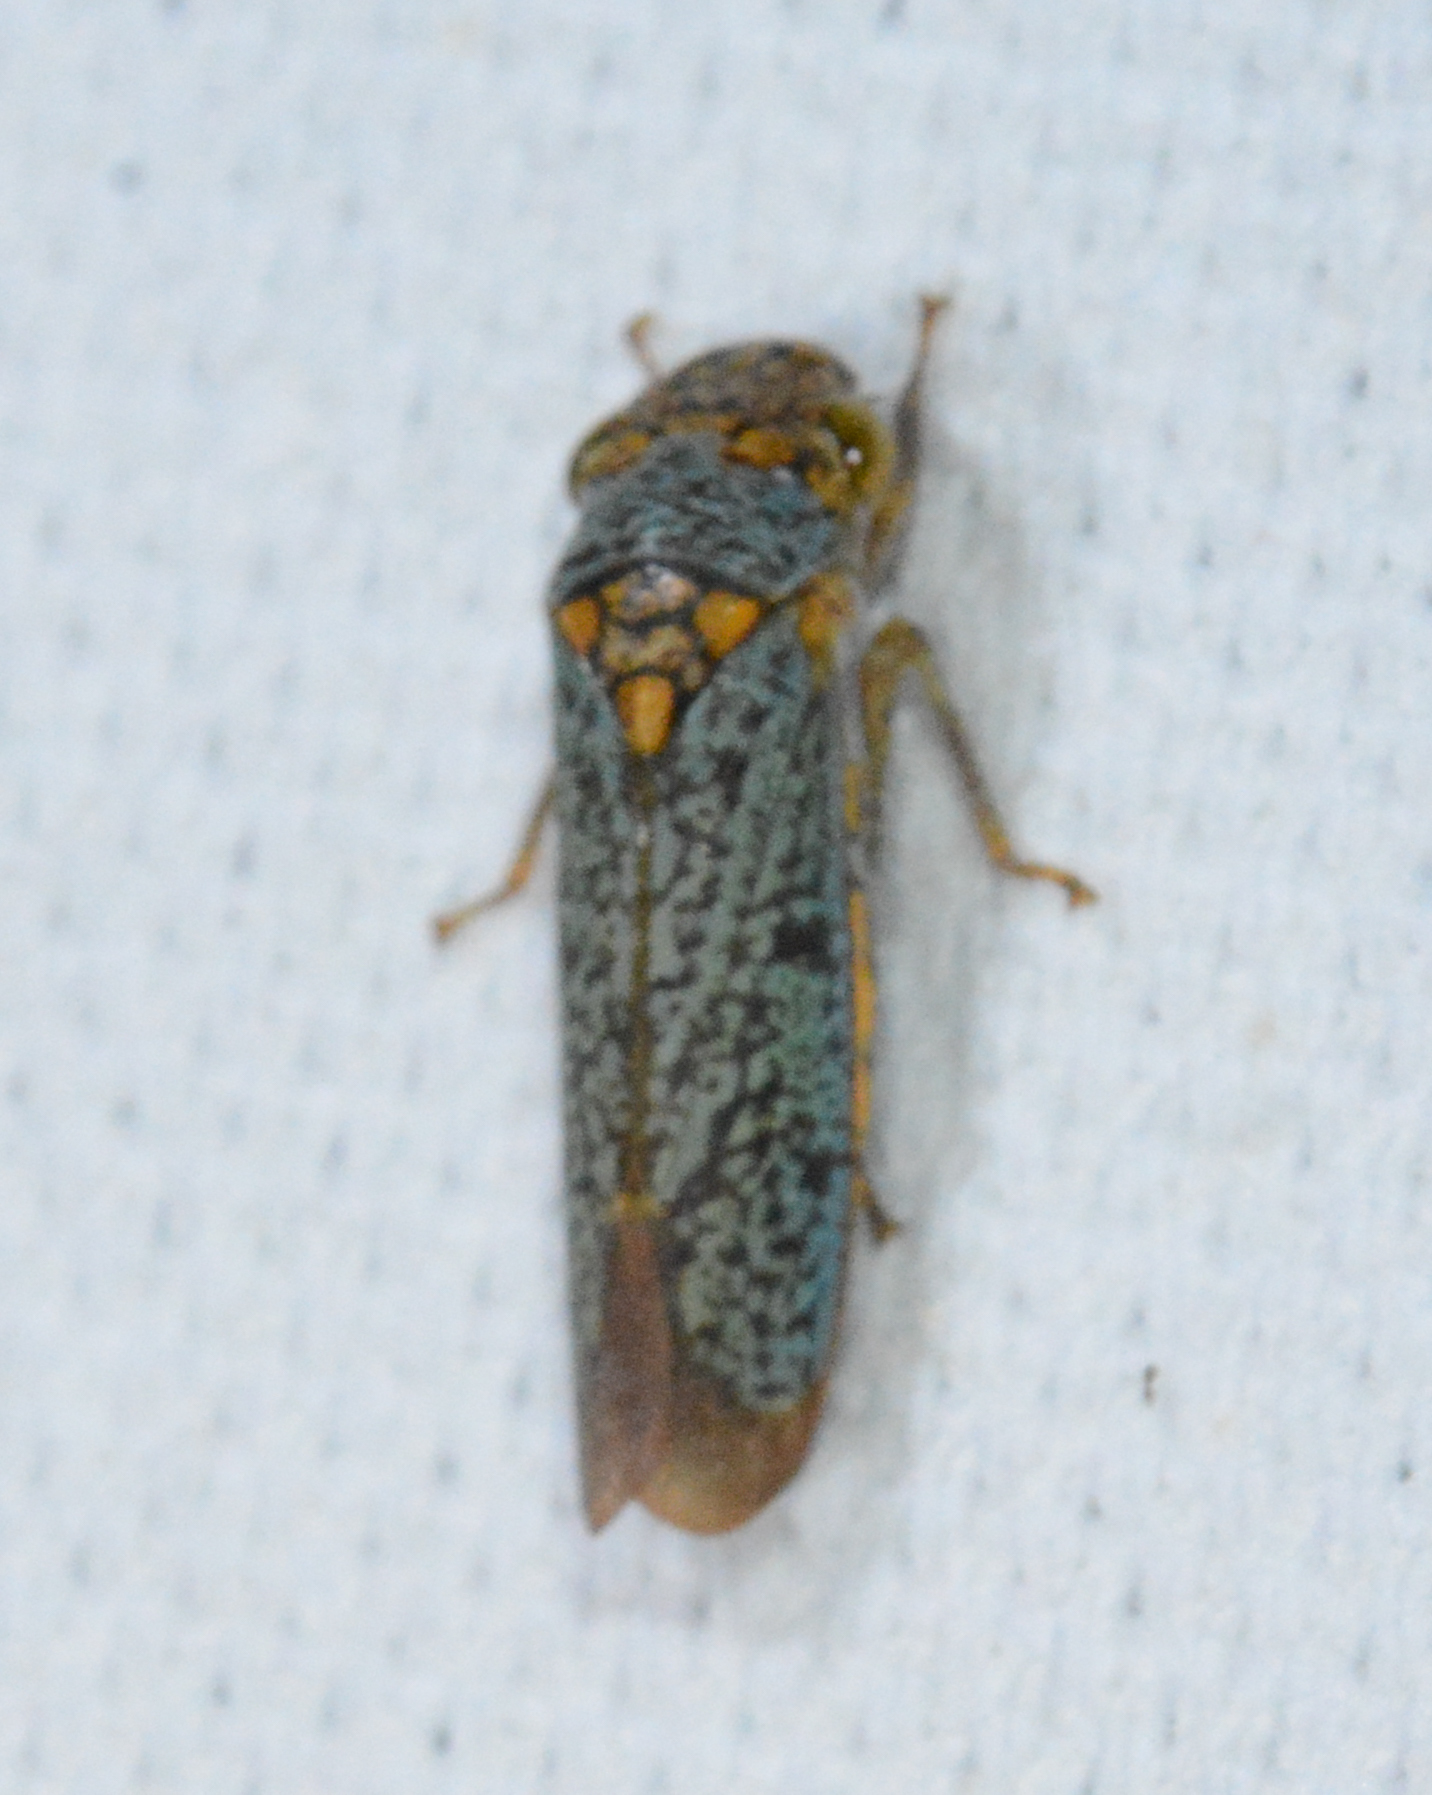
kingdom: Animalia
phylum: Arthropoda
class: Insecta
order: Hemiptera
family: Cicadellidae
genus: Oncometopia
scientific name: Oncometopia orbona
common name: Broad-headed sharpshooter
